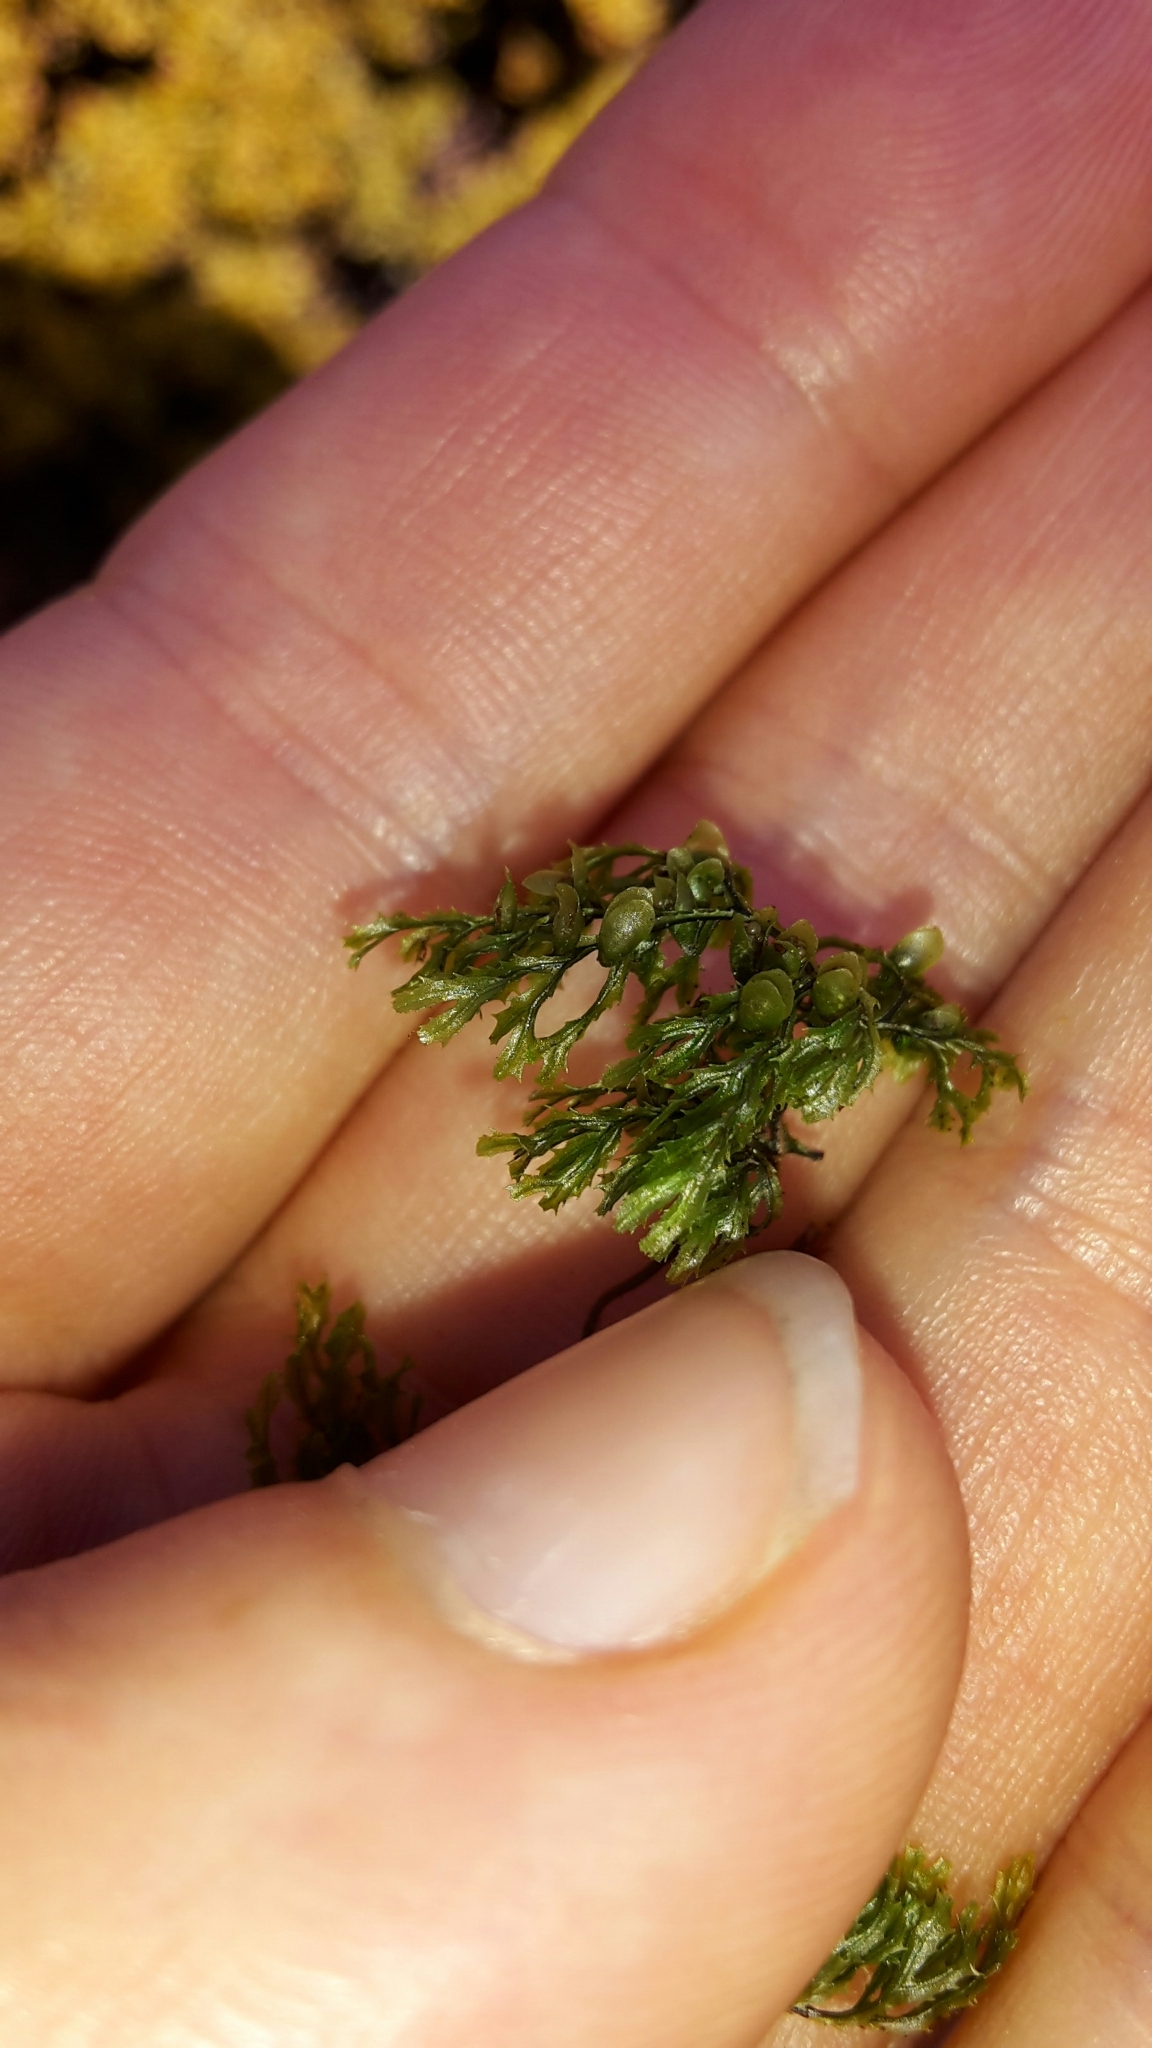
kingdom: Plantae
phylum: Tracheophyta
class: Polypodiopsida
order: Hymenophyllales
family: Hymenophyllaceae
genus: Hymenophyllum
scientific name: Hymenophyllum multifidum
